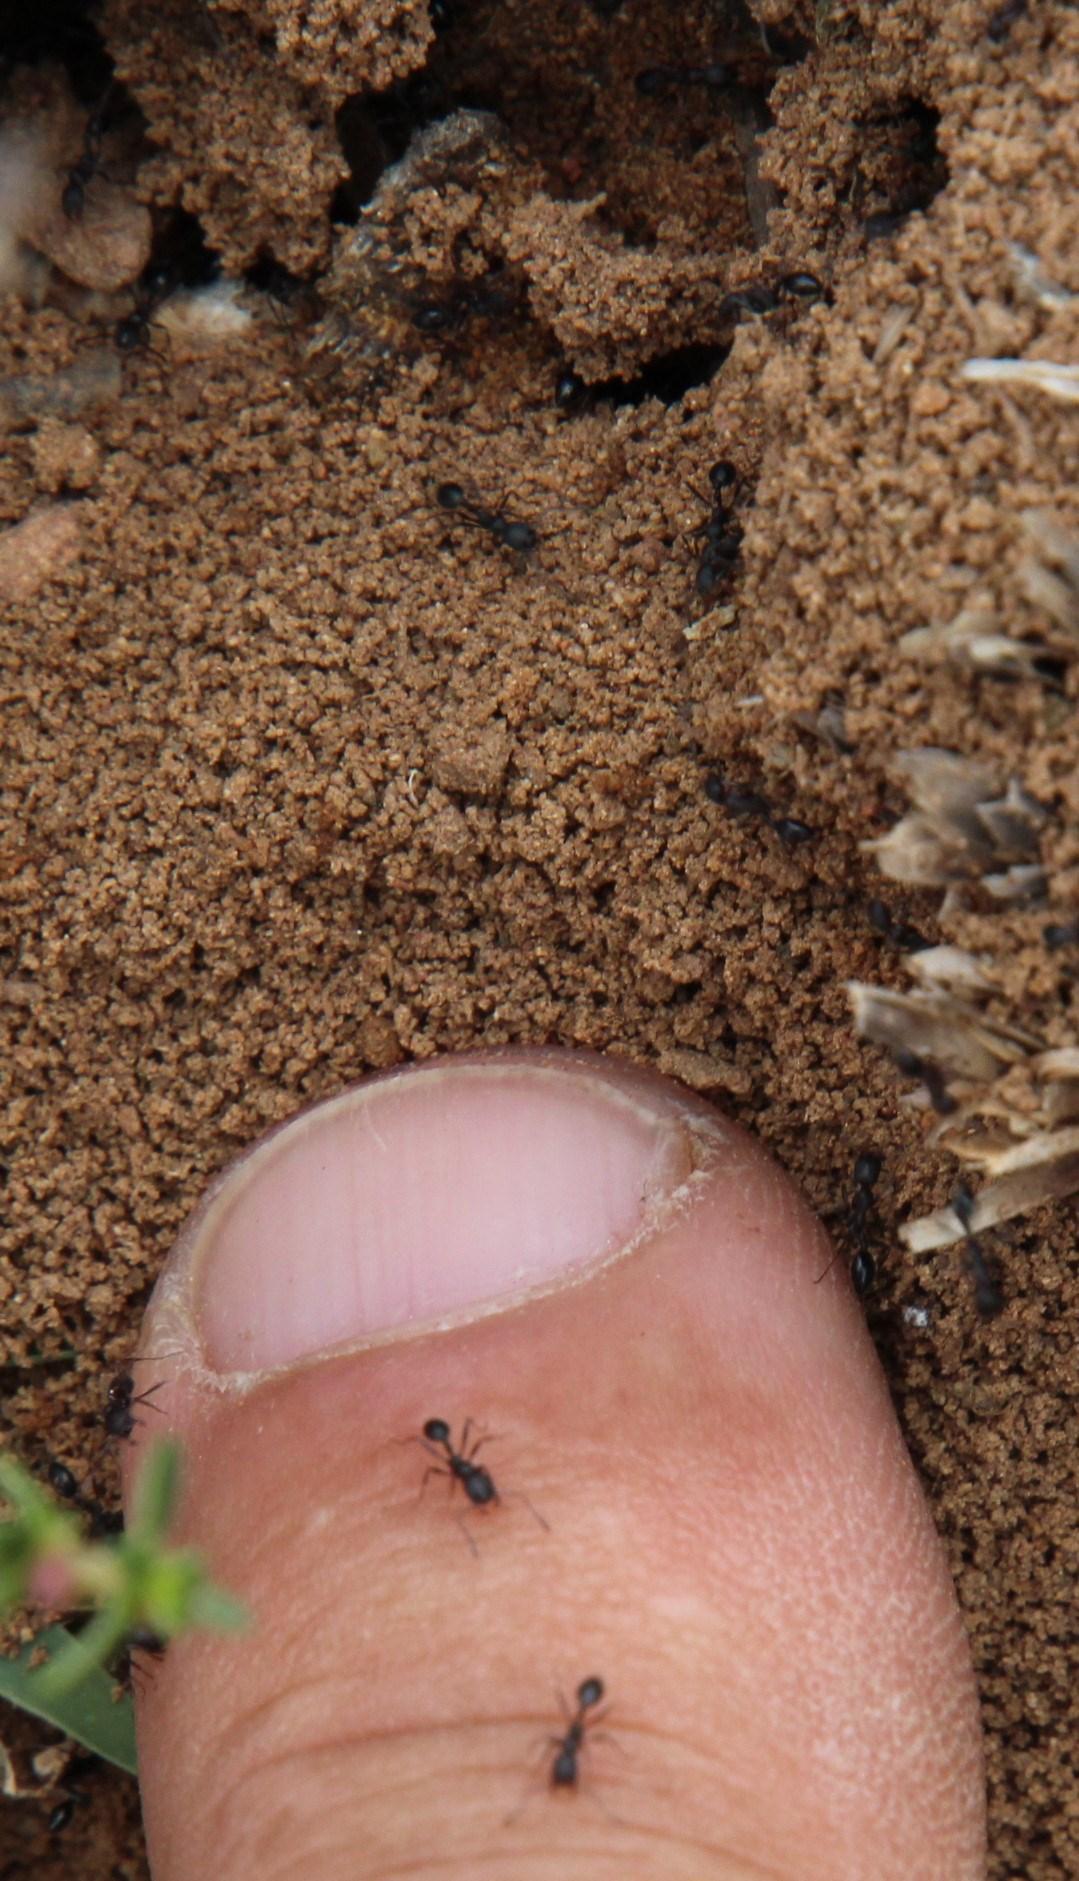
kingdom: Animalia
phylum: Arthropoda
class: Insecta
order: Hymenoptera
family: Formicidae
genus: Monomorium
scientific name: Monomorium fridae
